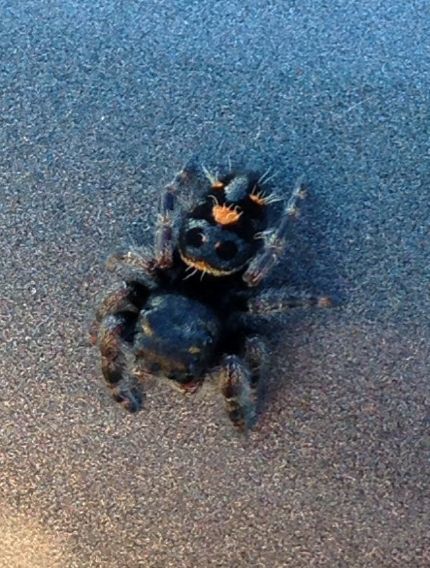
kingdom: Animalia
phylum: Arthropoda
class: Arachnida
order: Araneae
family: Salticidae
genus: Phidippus
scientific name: Phidippus audax
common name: Bold jumper
